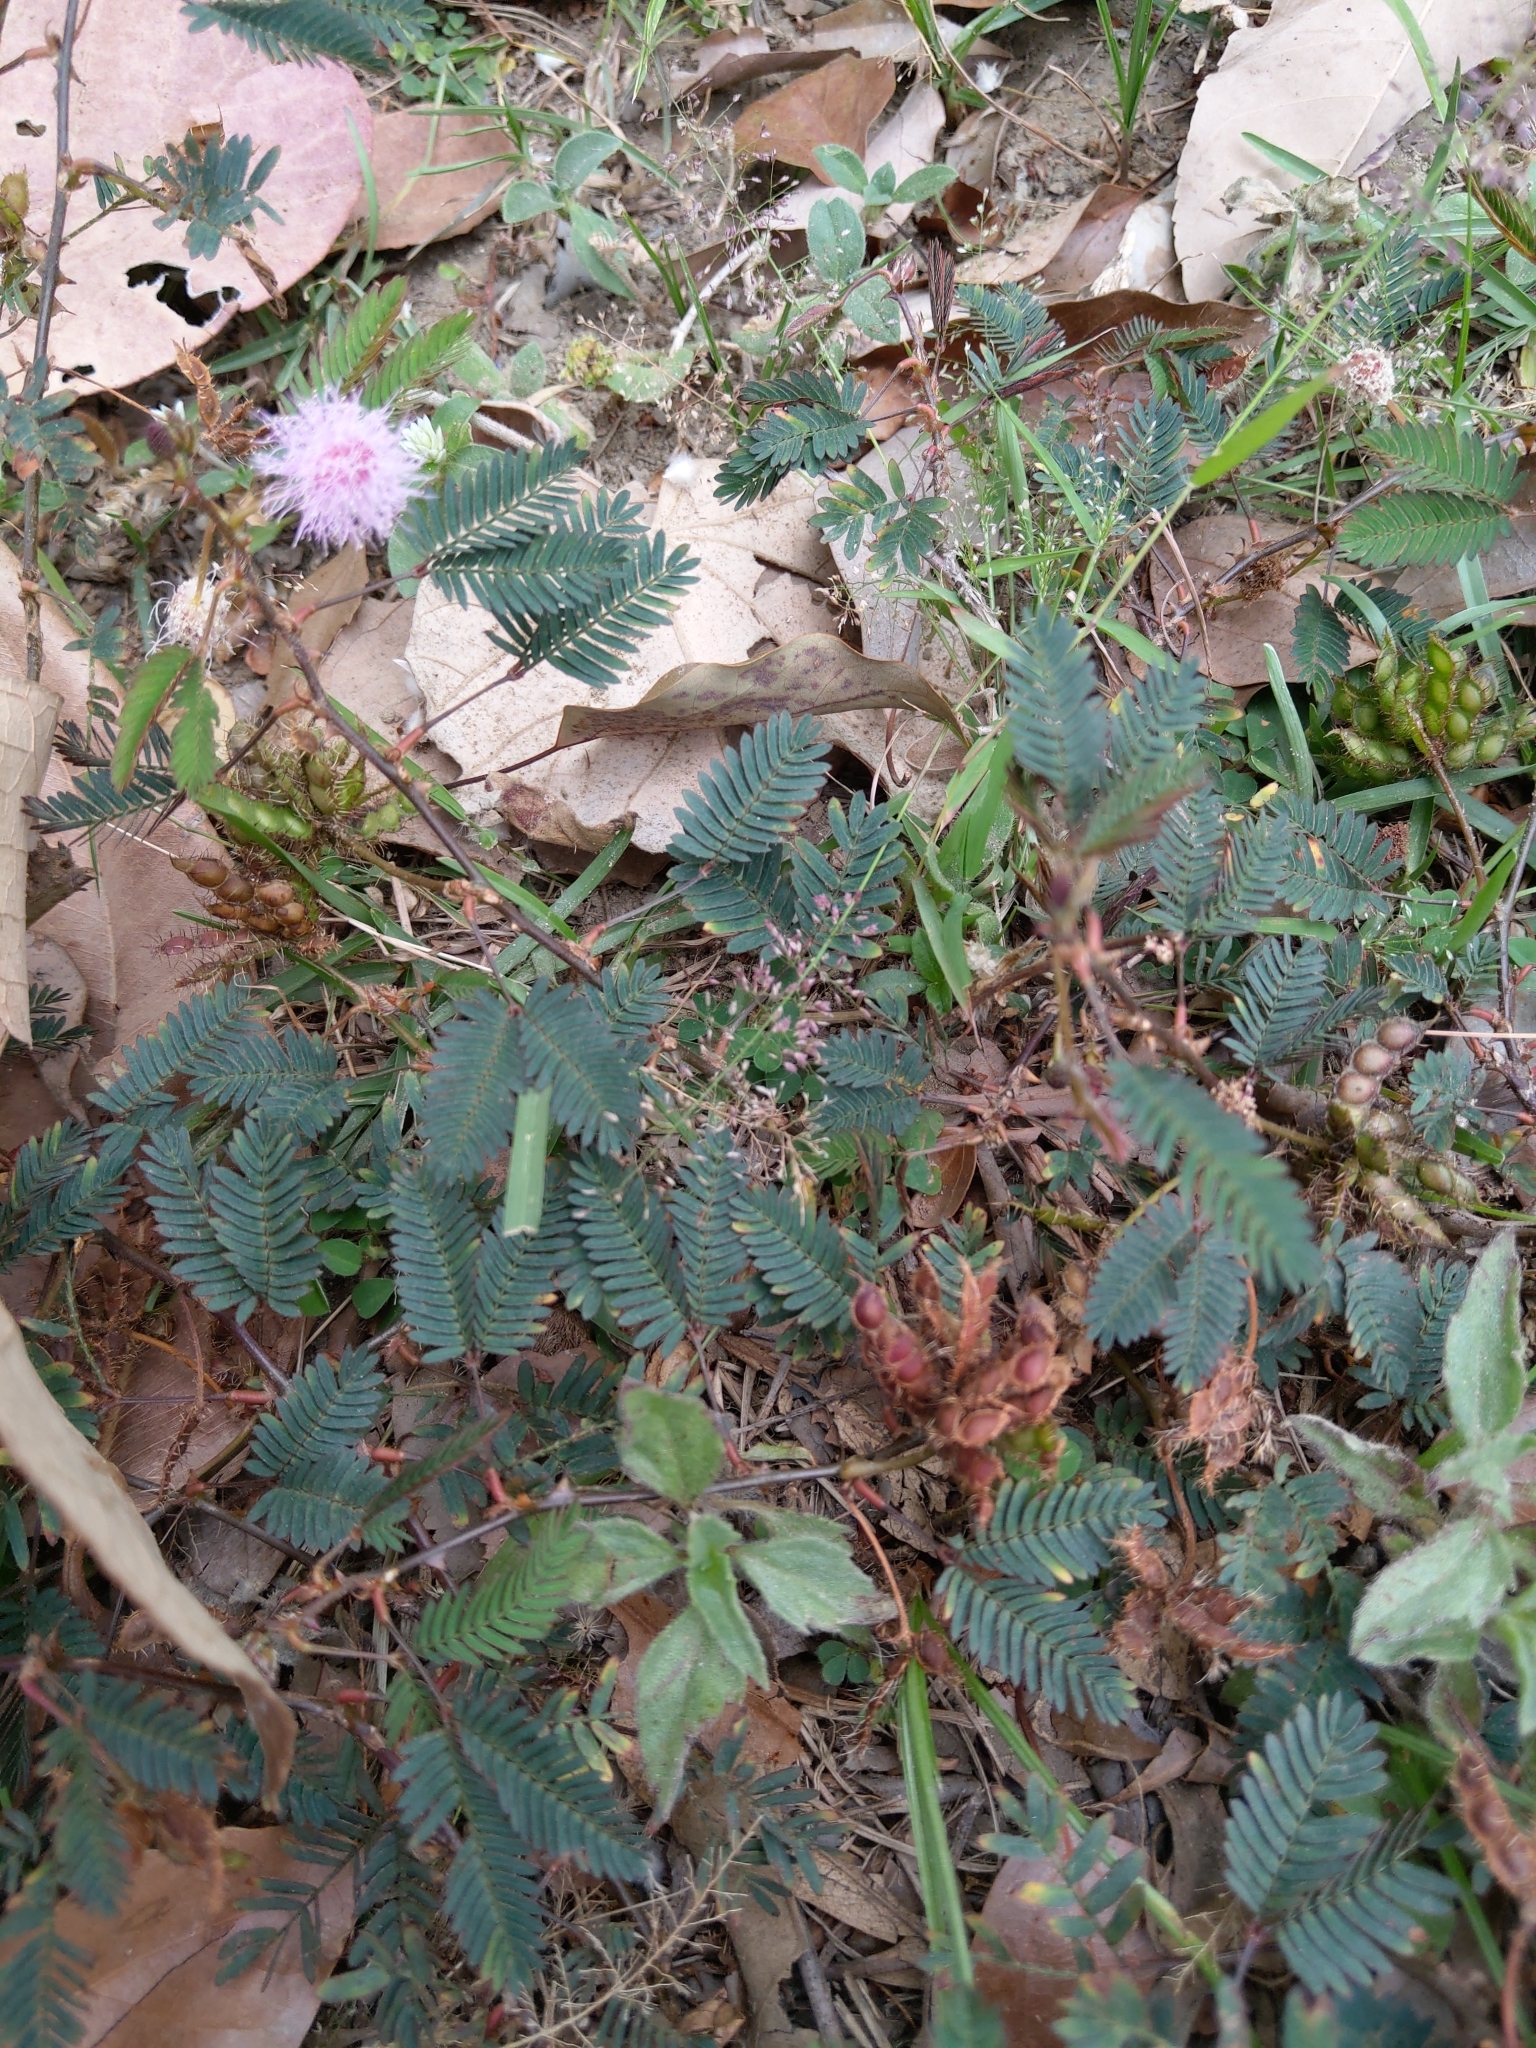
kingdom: Plantae
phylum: Tracheophyta
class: Magnoliopsida
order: Fabales
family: Fabaceae
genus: Mimosa
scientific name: Mimosa pudica
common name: Sensitive plant
